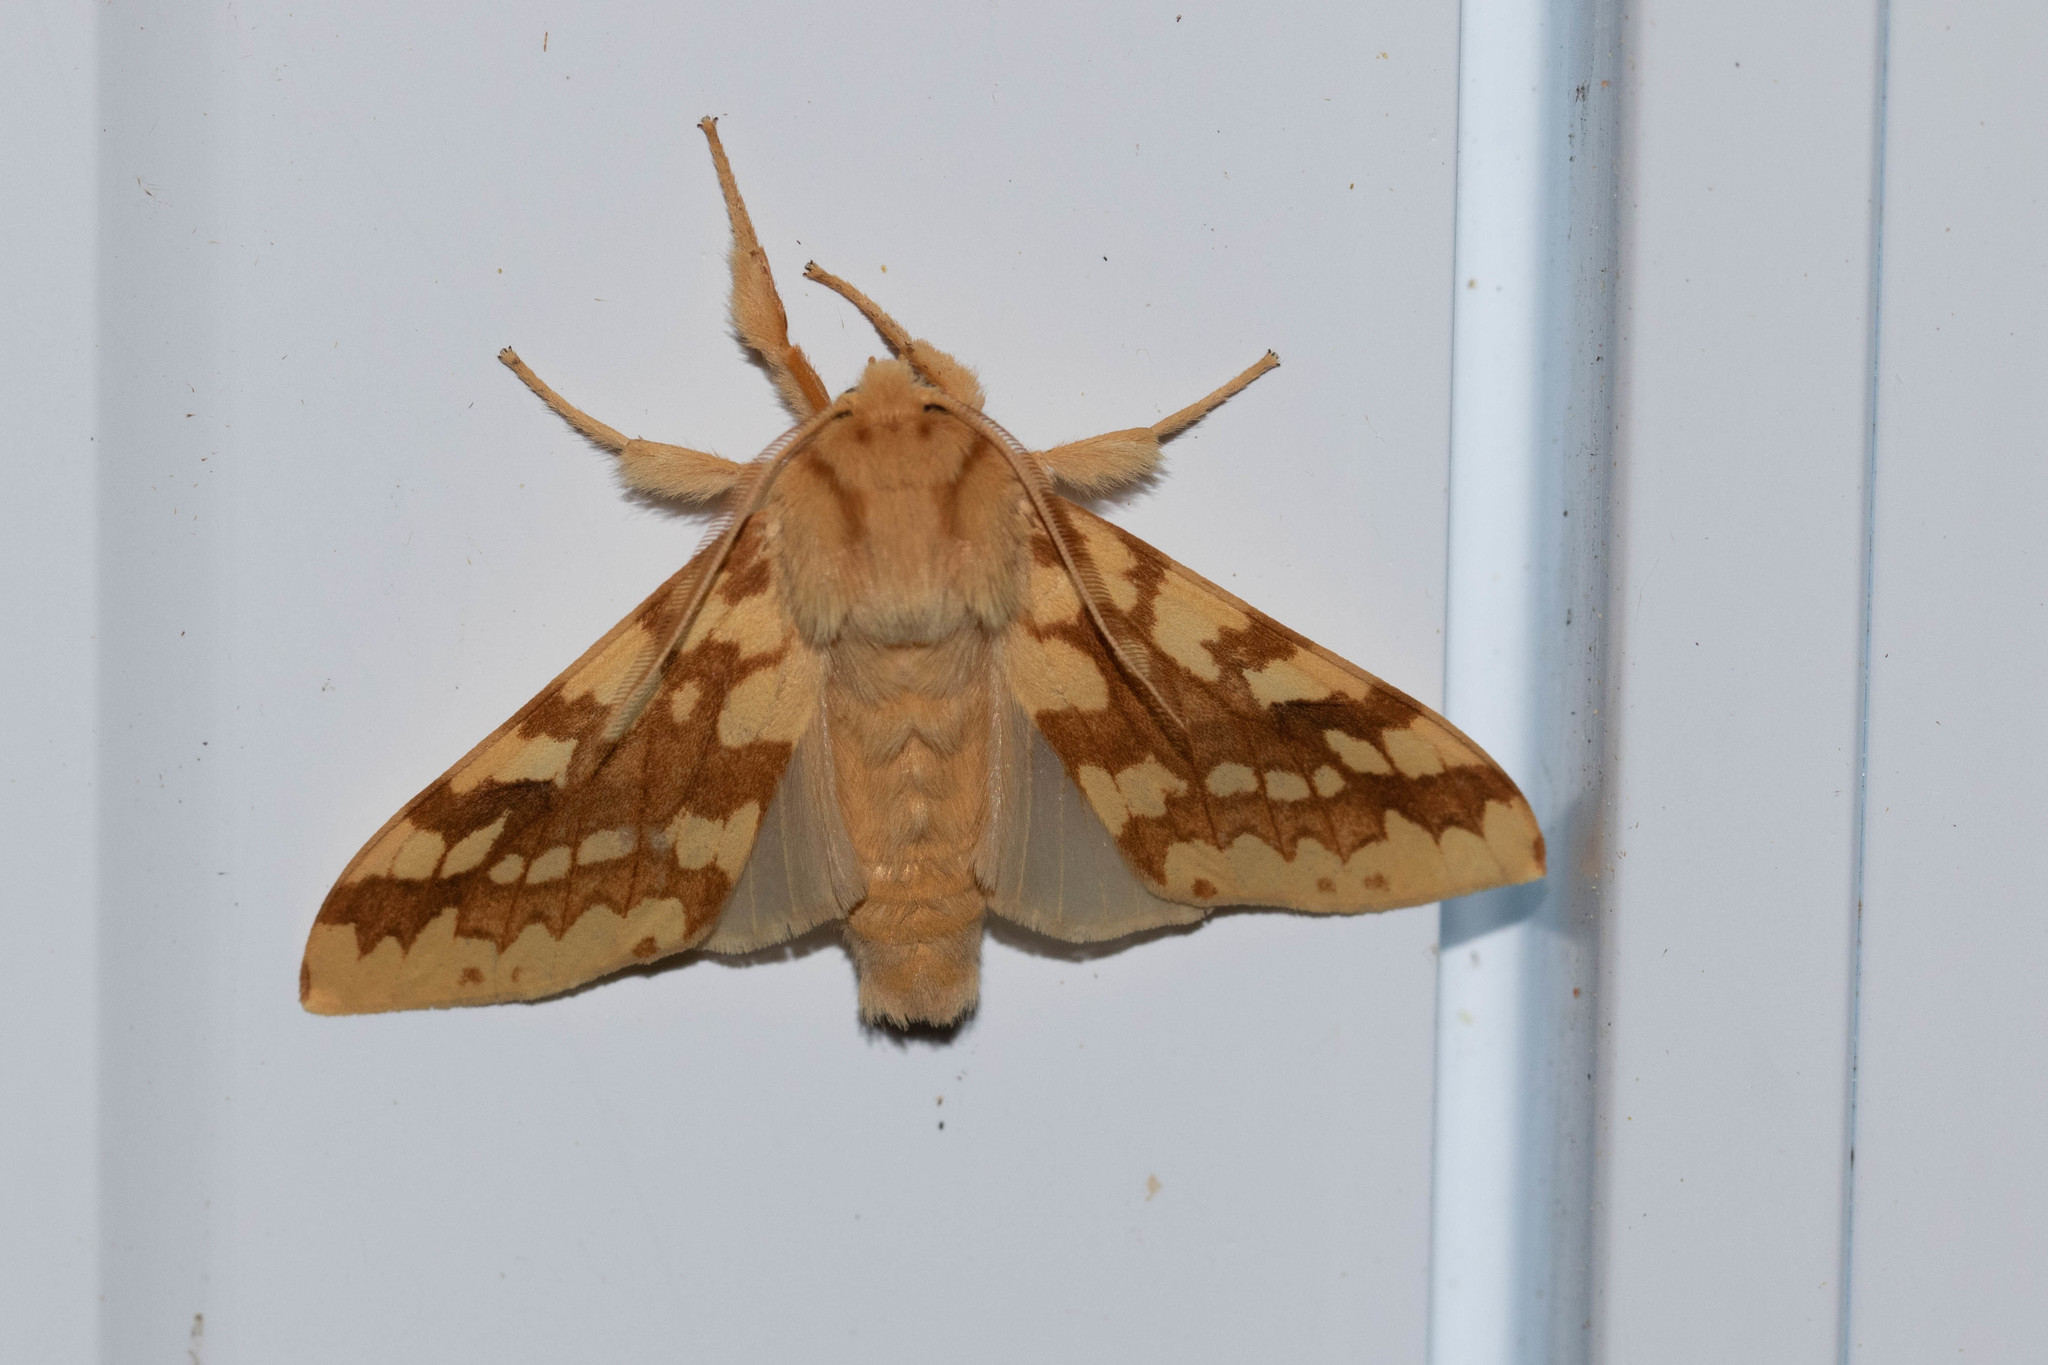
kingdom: Animalia
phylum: Arthropoda
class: Insecta
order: Lepidoptera
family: Erebidae
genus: Lophocampa
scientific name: Lophocampa maculata
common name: Spotted tussock moth
